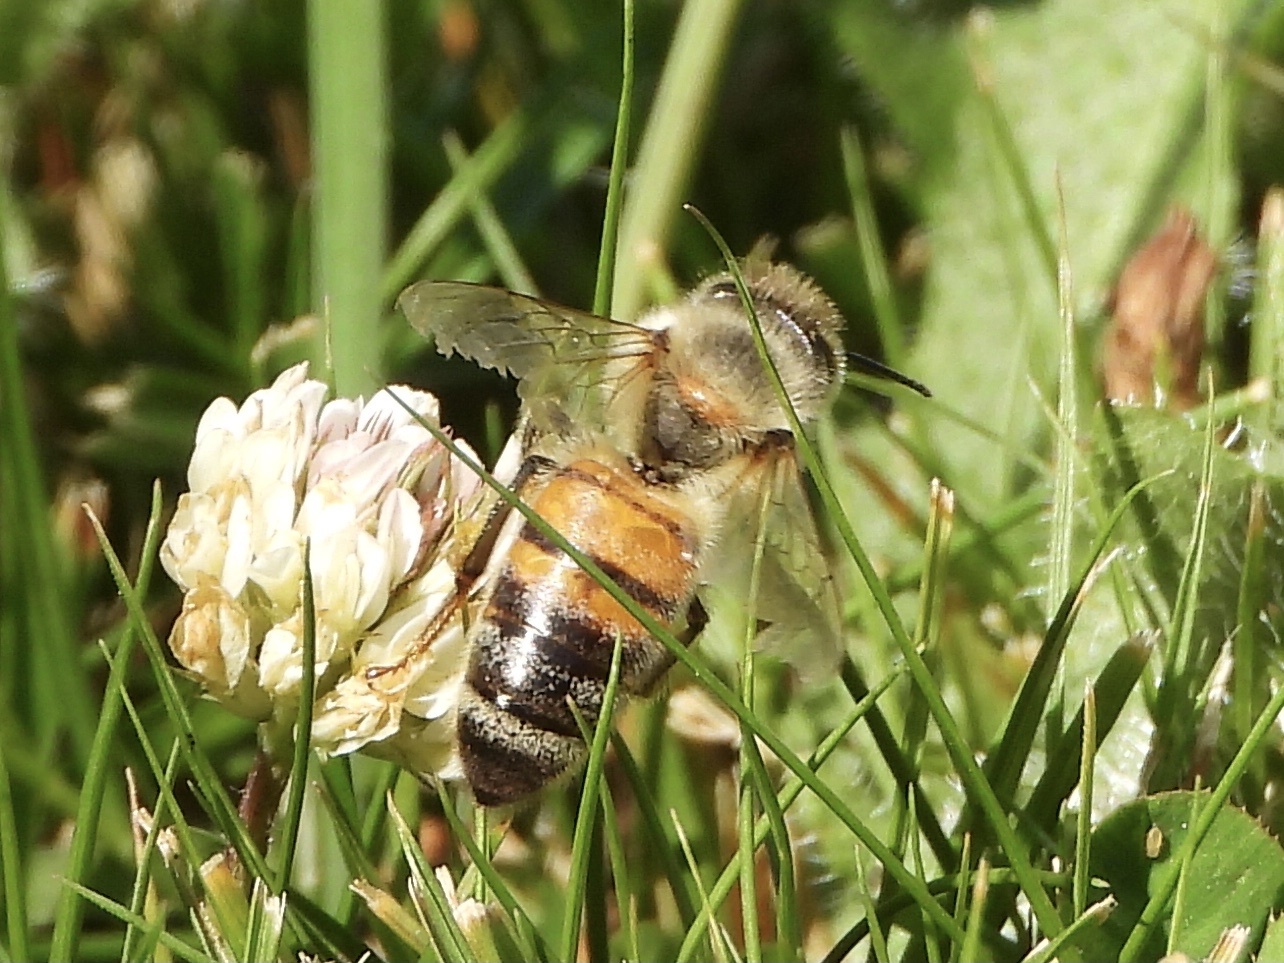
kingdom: Animalia
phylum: Arthropoda
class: Insecta
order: Hymenoptera
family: Apidae
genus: Apis
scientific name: Apis mellifera
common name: Honey bee
